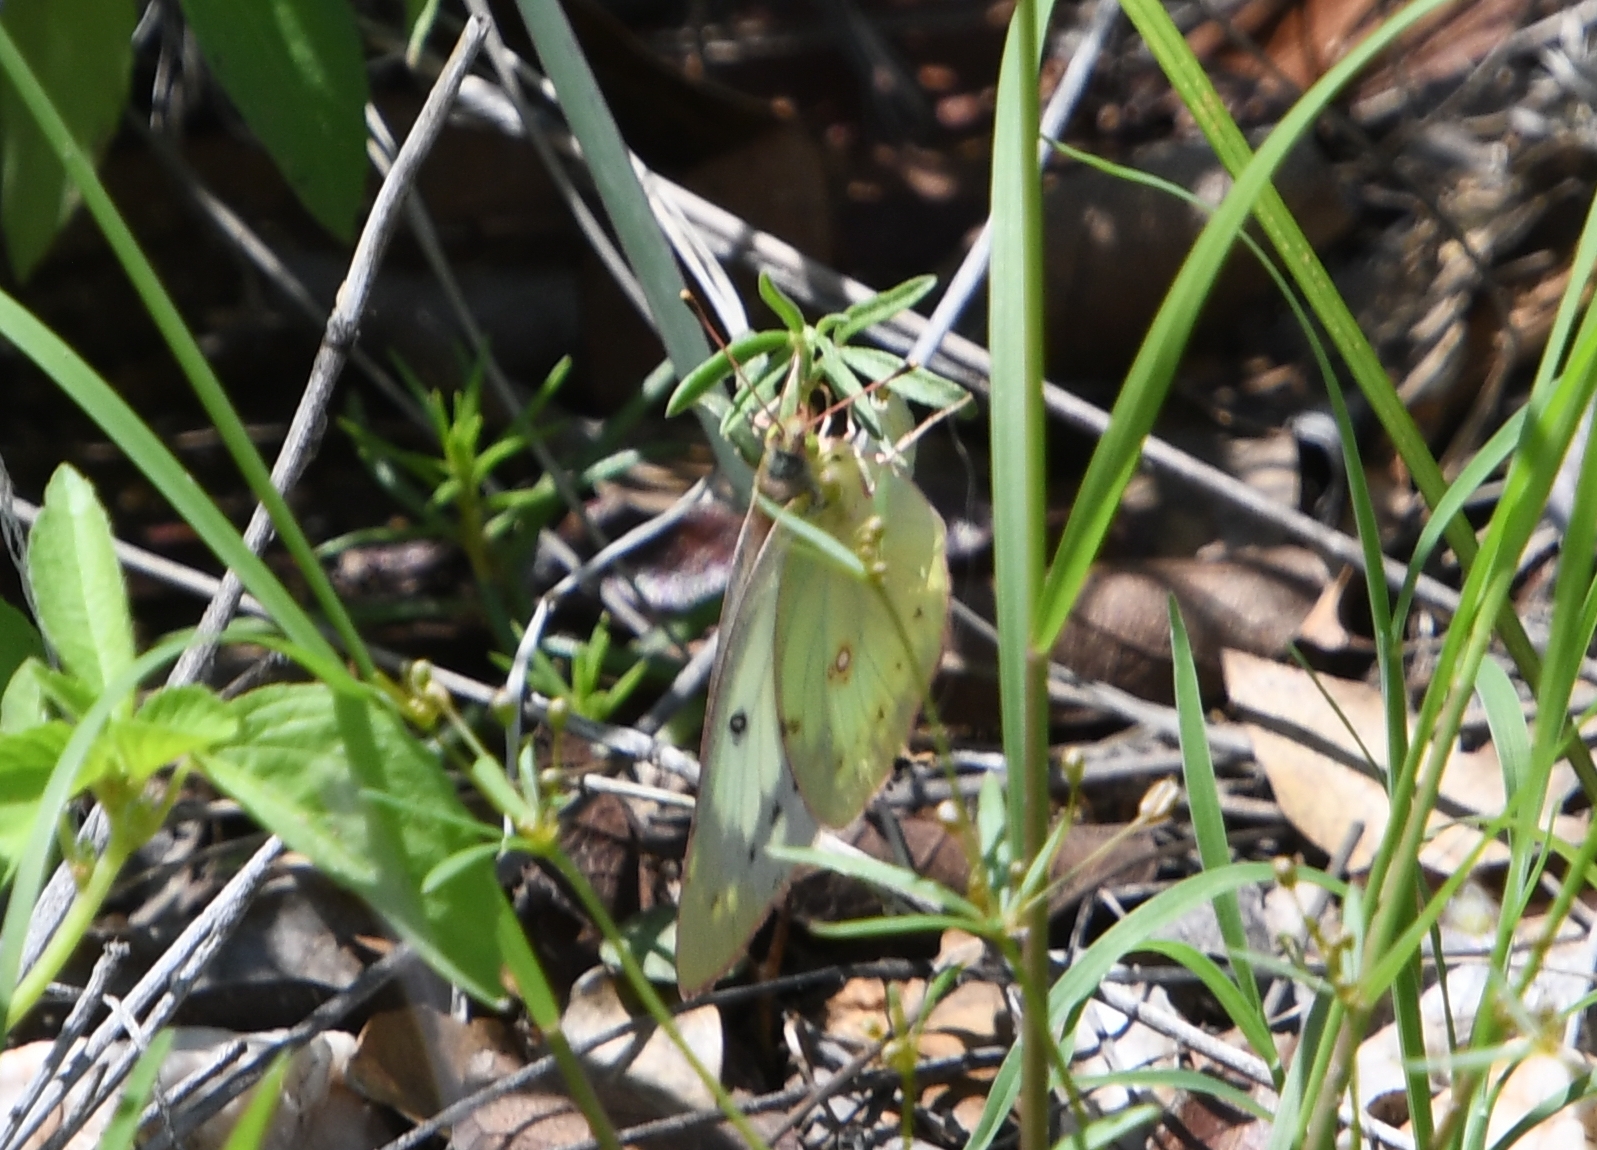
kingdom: Animalia
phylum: Arthropoda
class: Insecta
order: Lepidoptera
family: Pieridae
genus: Colias
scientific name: Colias eurytheme
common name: Alfalfa butterfly
